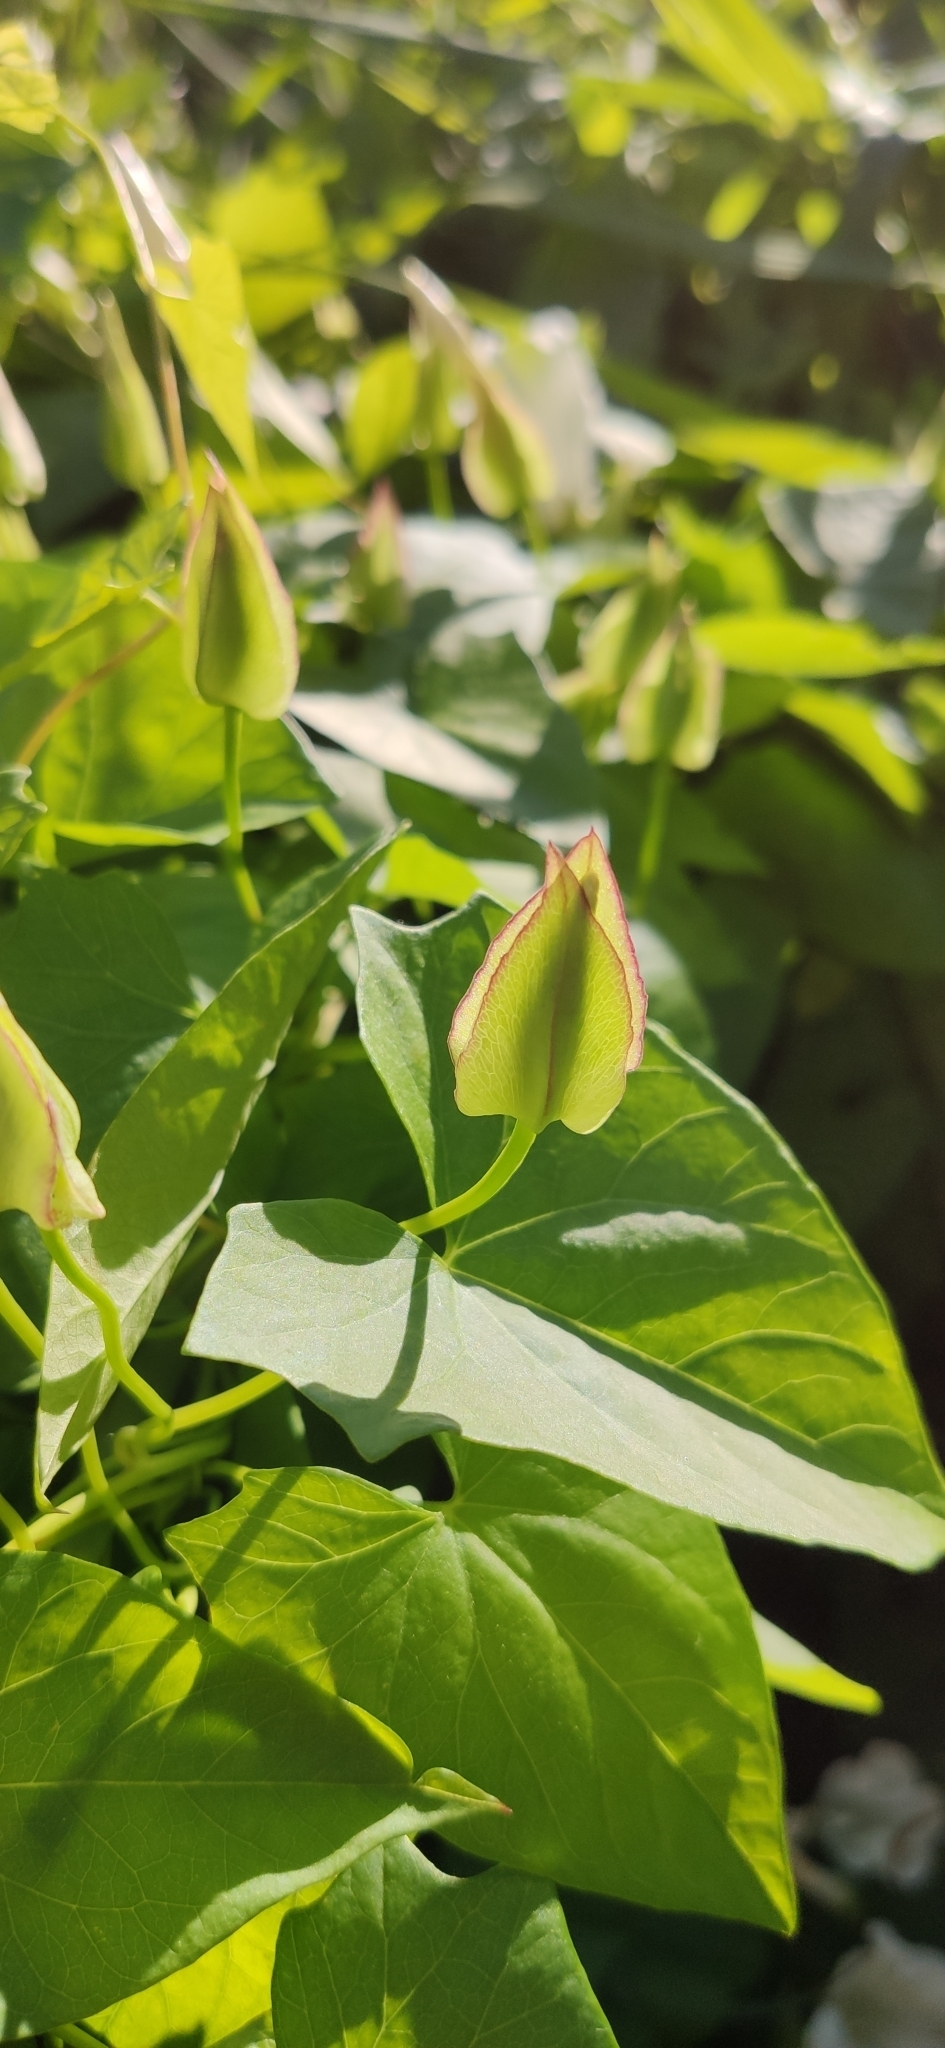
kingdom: Plantae
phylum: Tracheophyta
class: Magnoliopsida
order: Solanales
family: Convolvulaceae
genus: Calystegia
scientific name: Calystegia sepium
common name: Hedge bindweed
